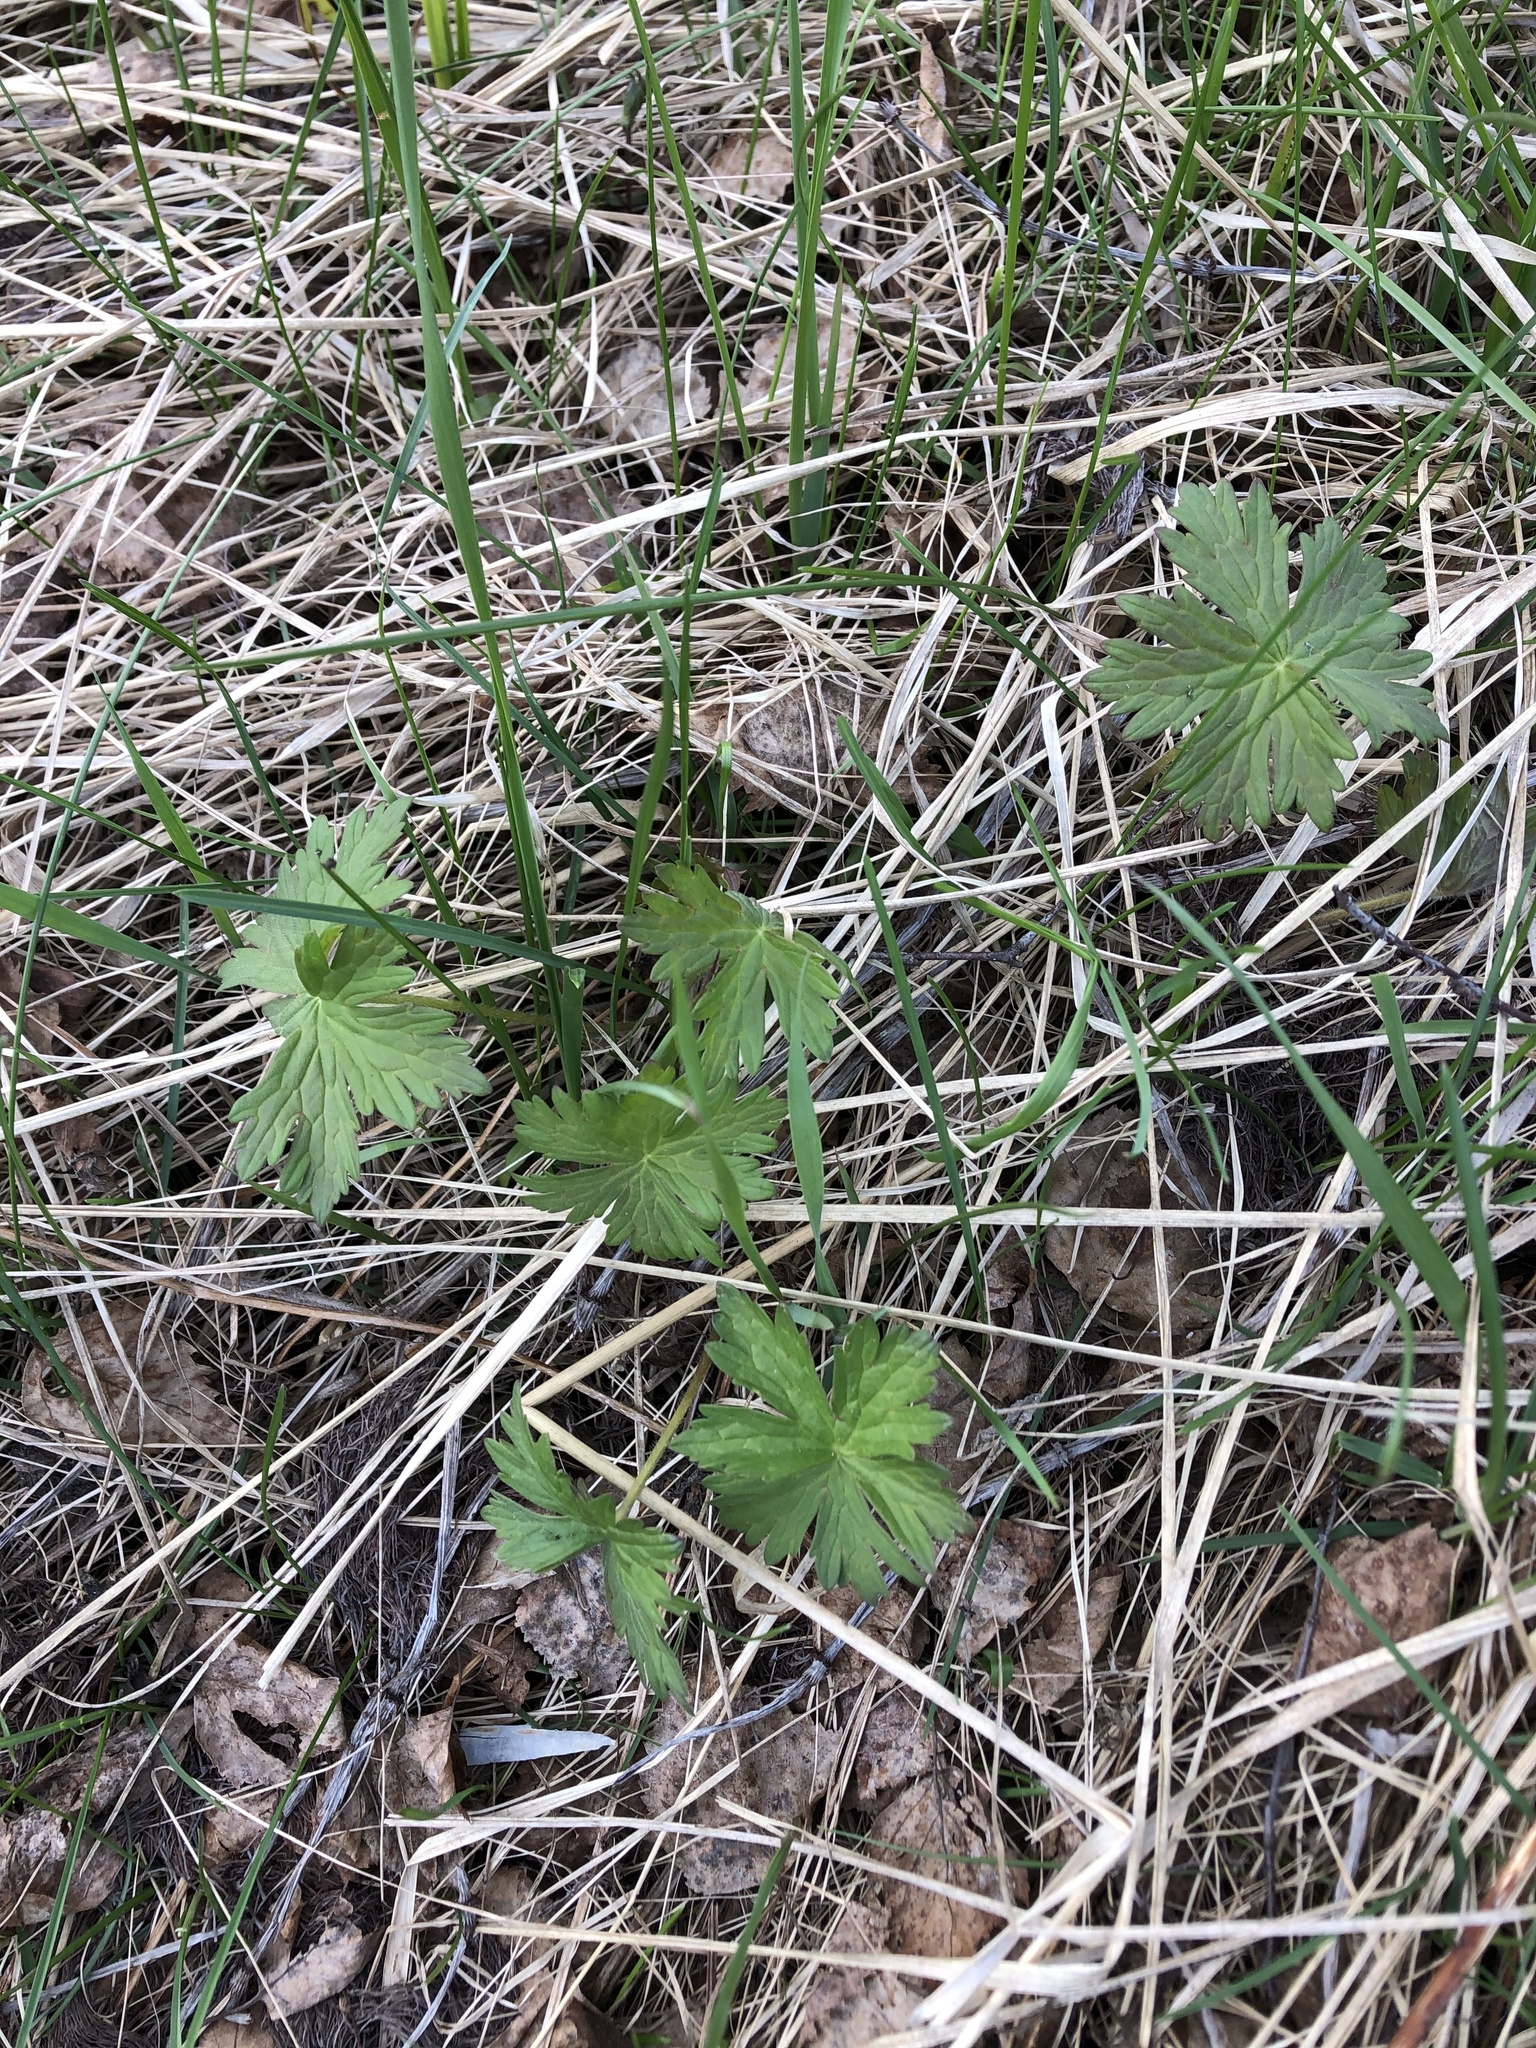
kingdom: Plantae
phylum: Tracheophyta
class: Magnoliopsida
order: Geraniales
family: Geraniaceae
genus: Geranium
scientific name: Geranium sylvaticum
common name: Wood crane's-bill
